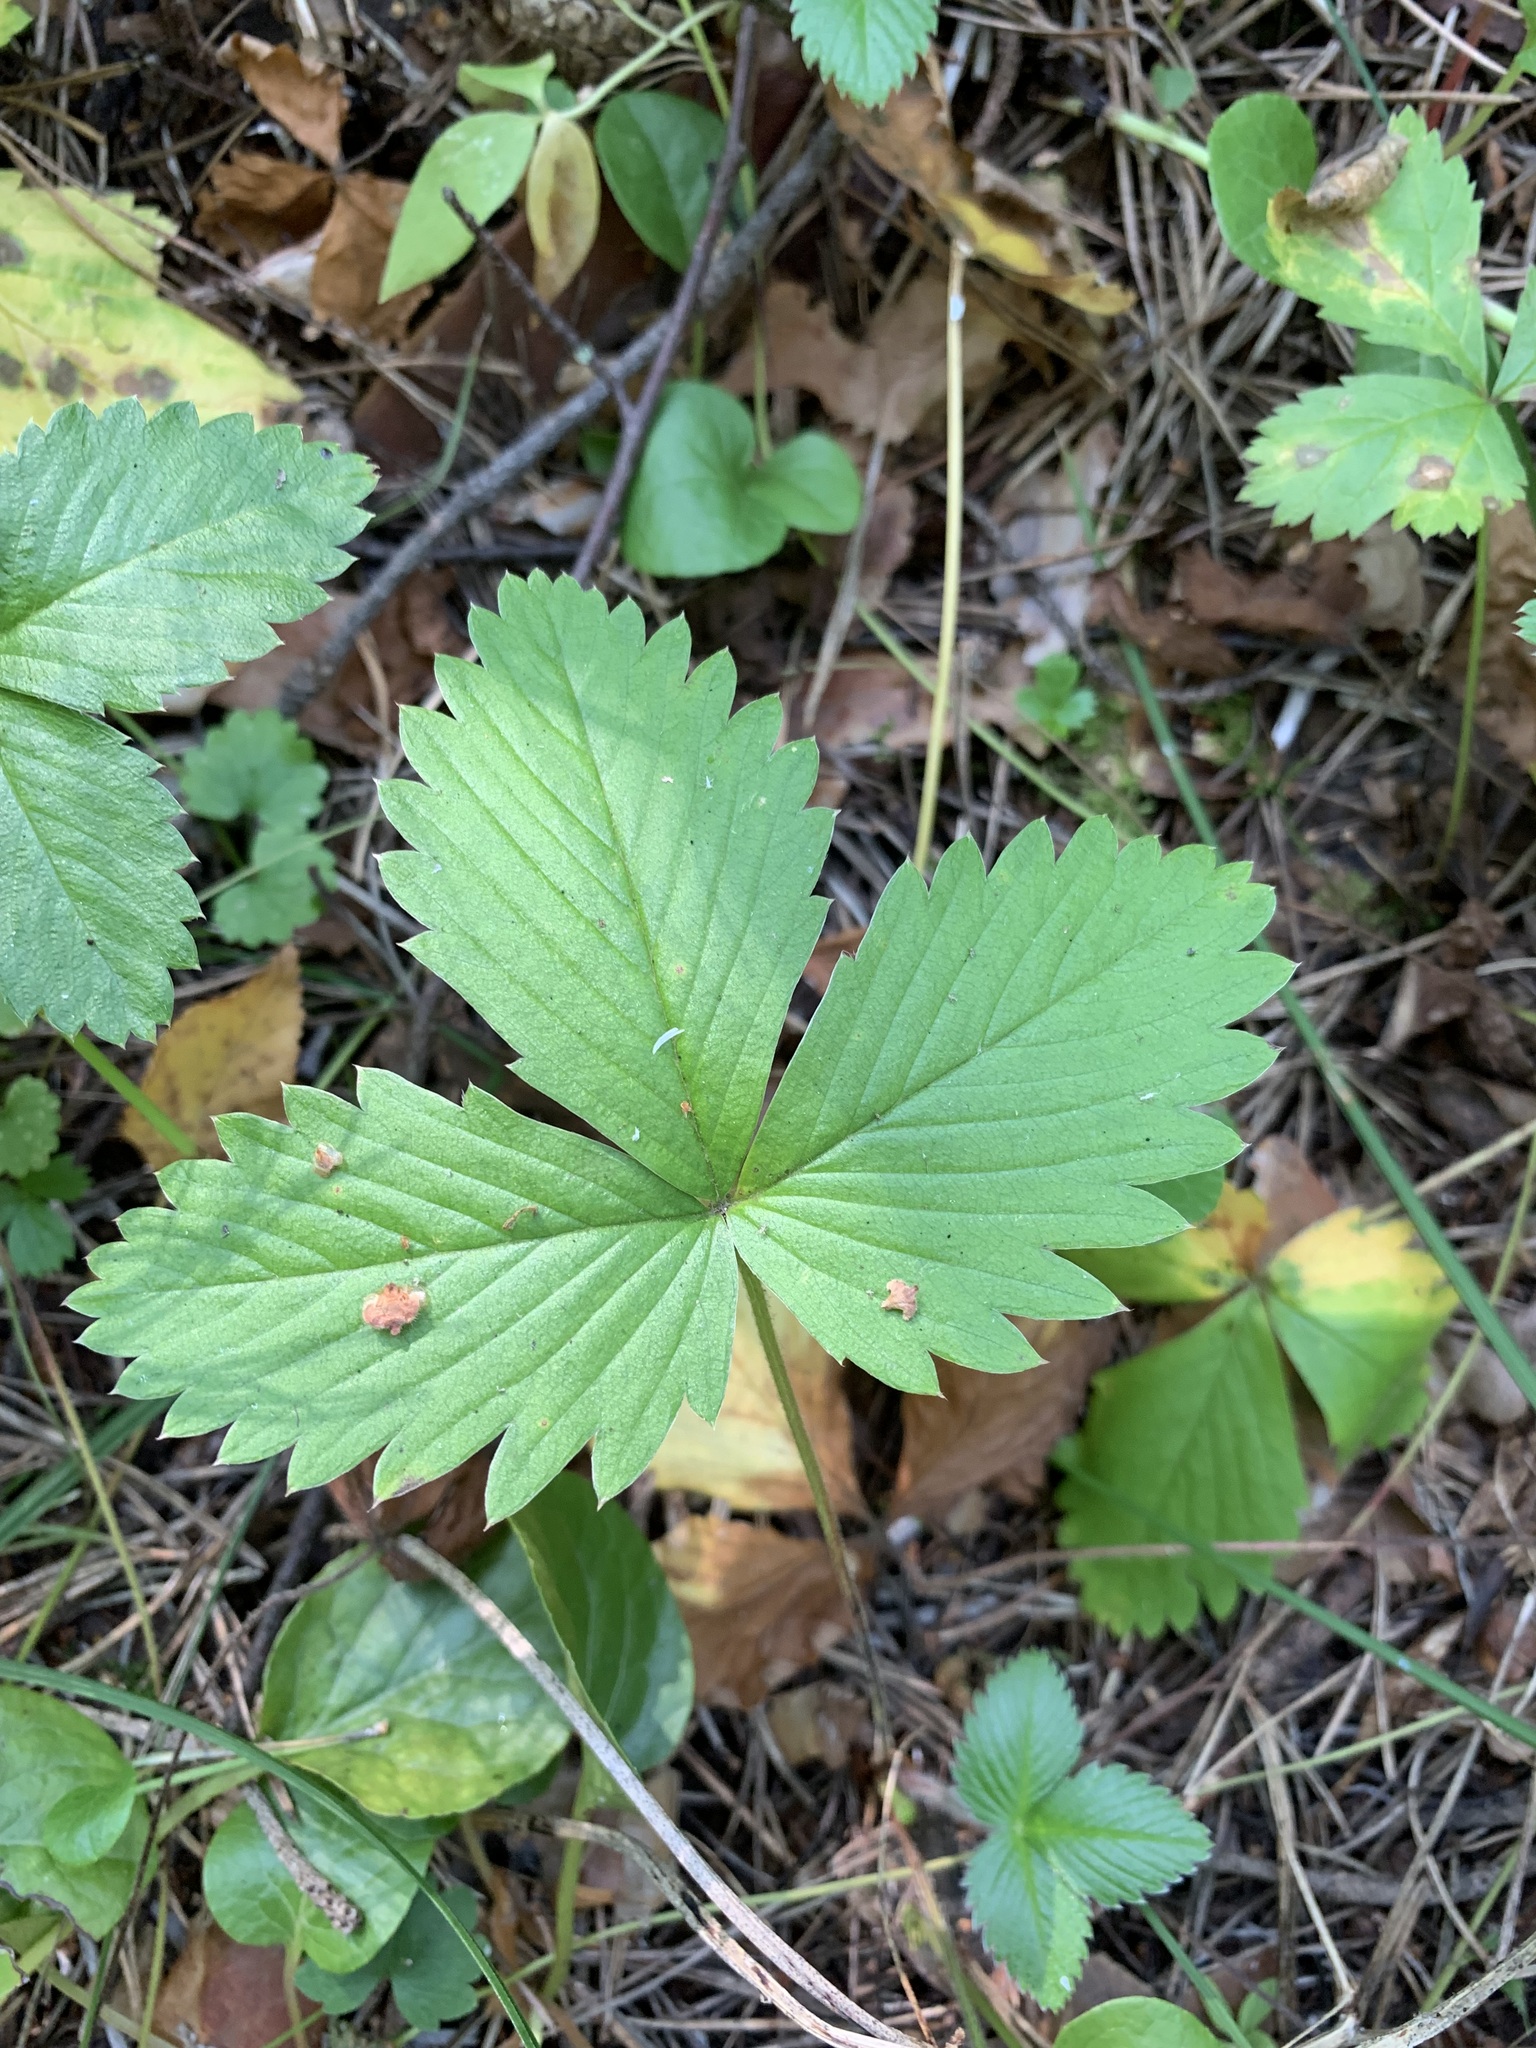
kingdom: Plantae
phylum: Tracheophyta
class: Magnoliopsida
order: Rosales
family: Rosaceae
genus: Fragaria
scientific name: Fragaria vesca
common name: Wild strawberry
